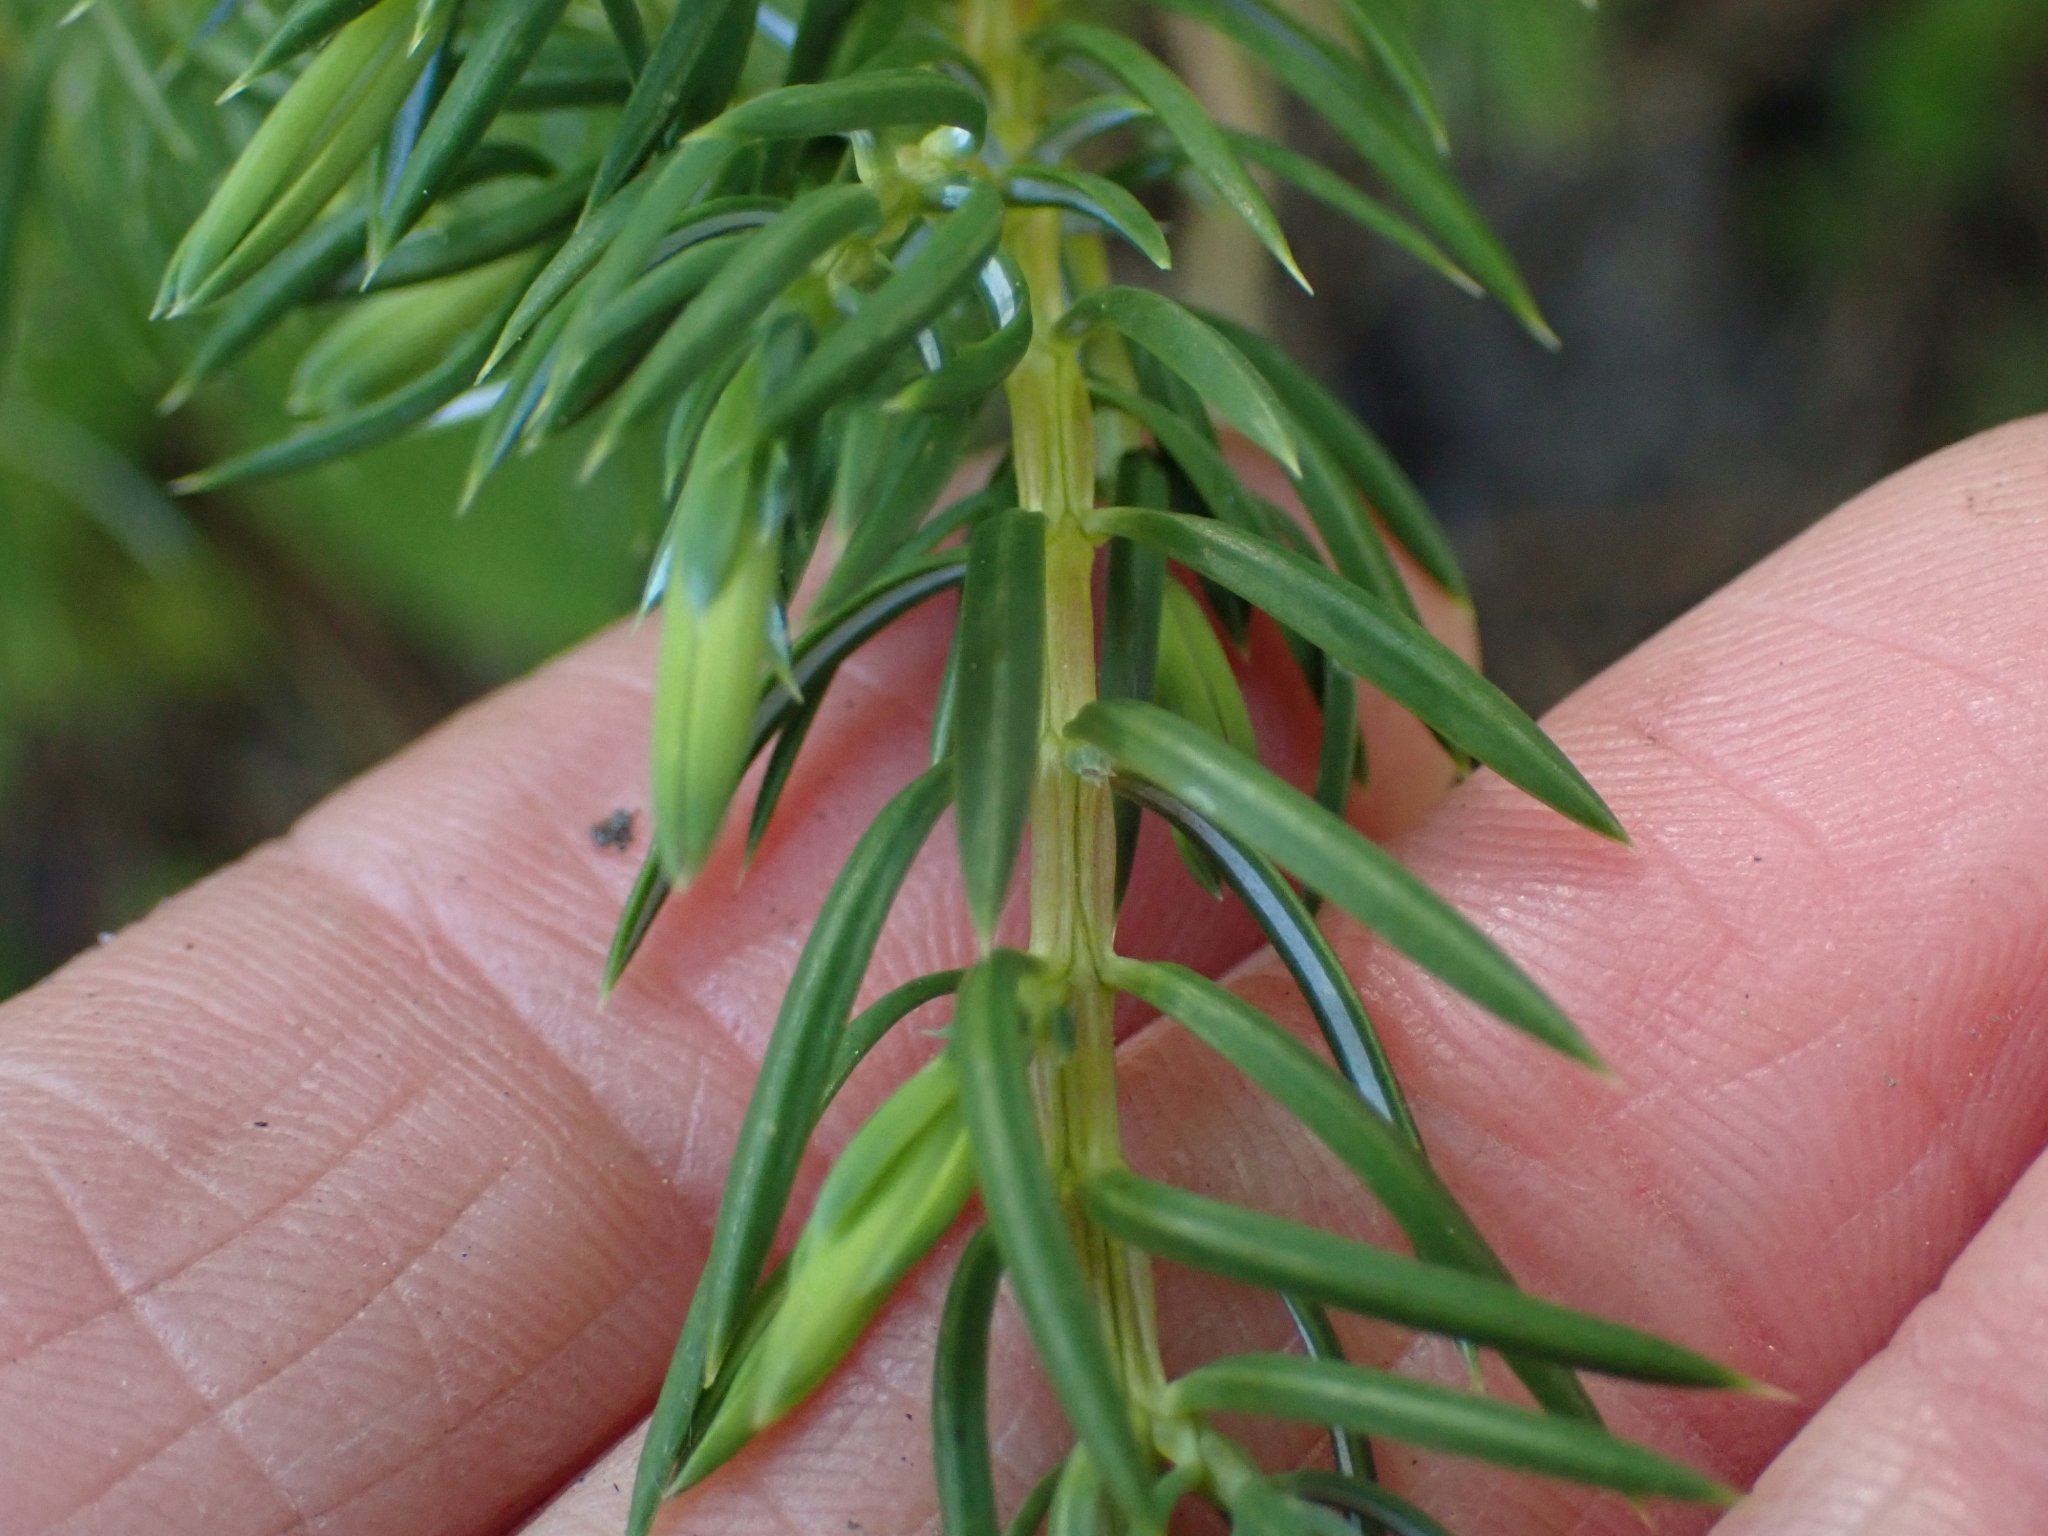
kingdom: Plantae
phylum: Tracheophyta
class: Pinopsida
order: Pinales
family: Cupressaceae
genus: Juniperus
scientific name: Juniperus communis
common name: Common juniper
